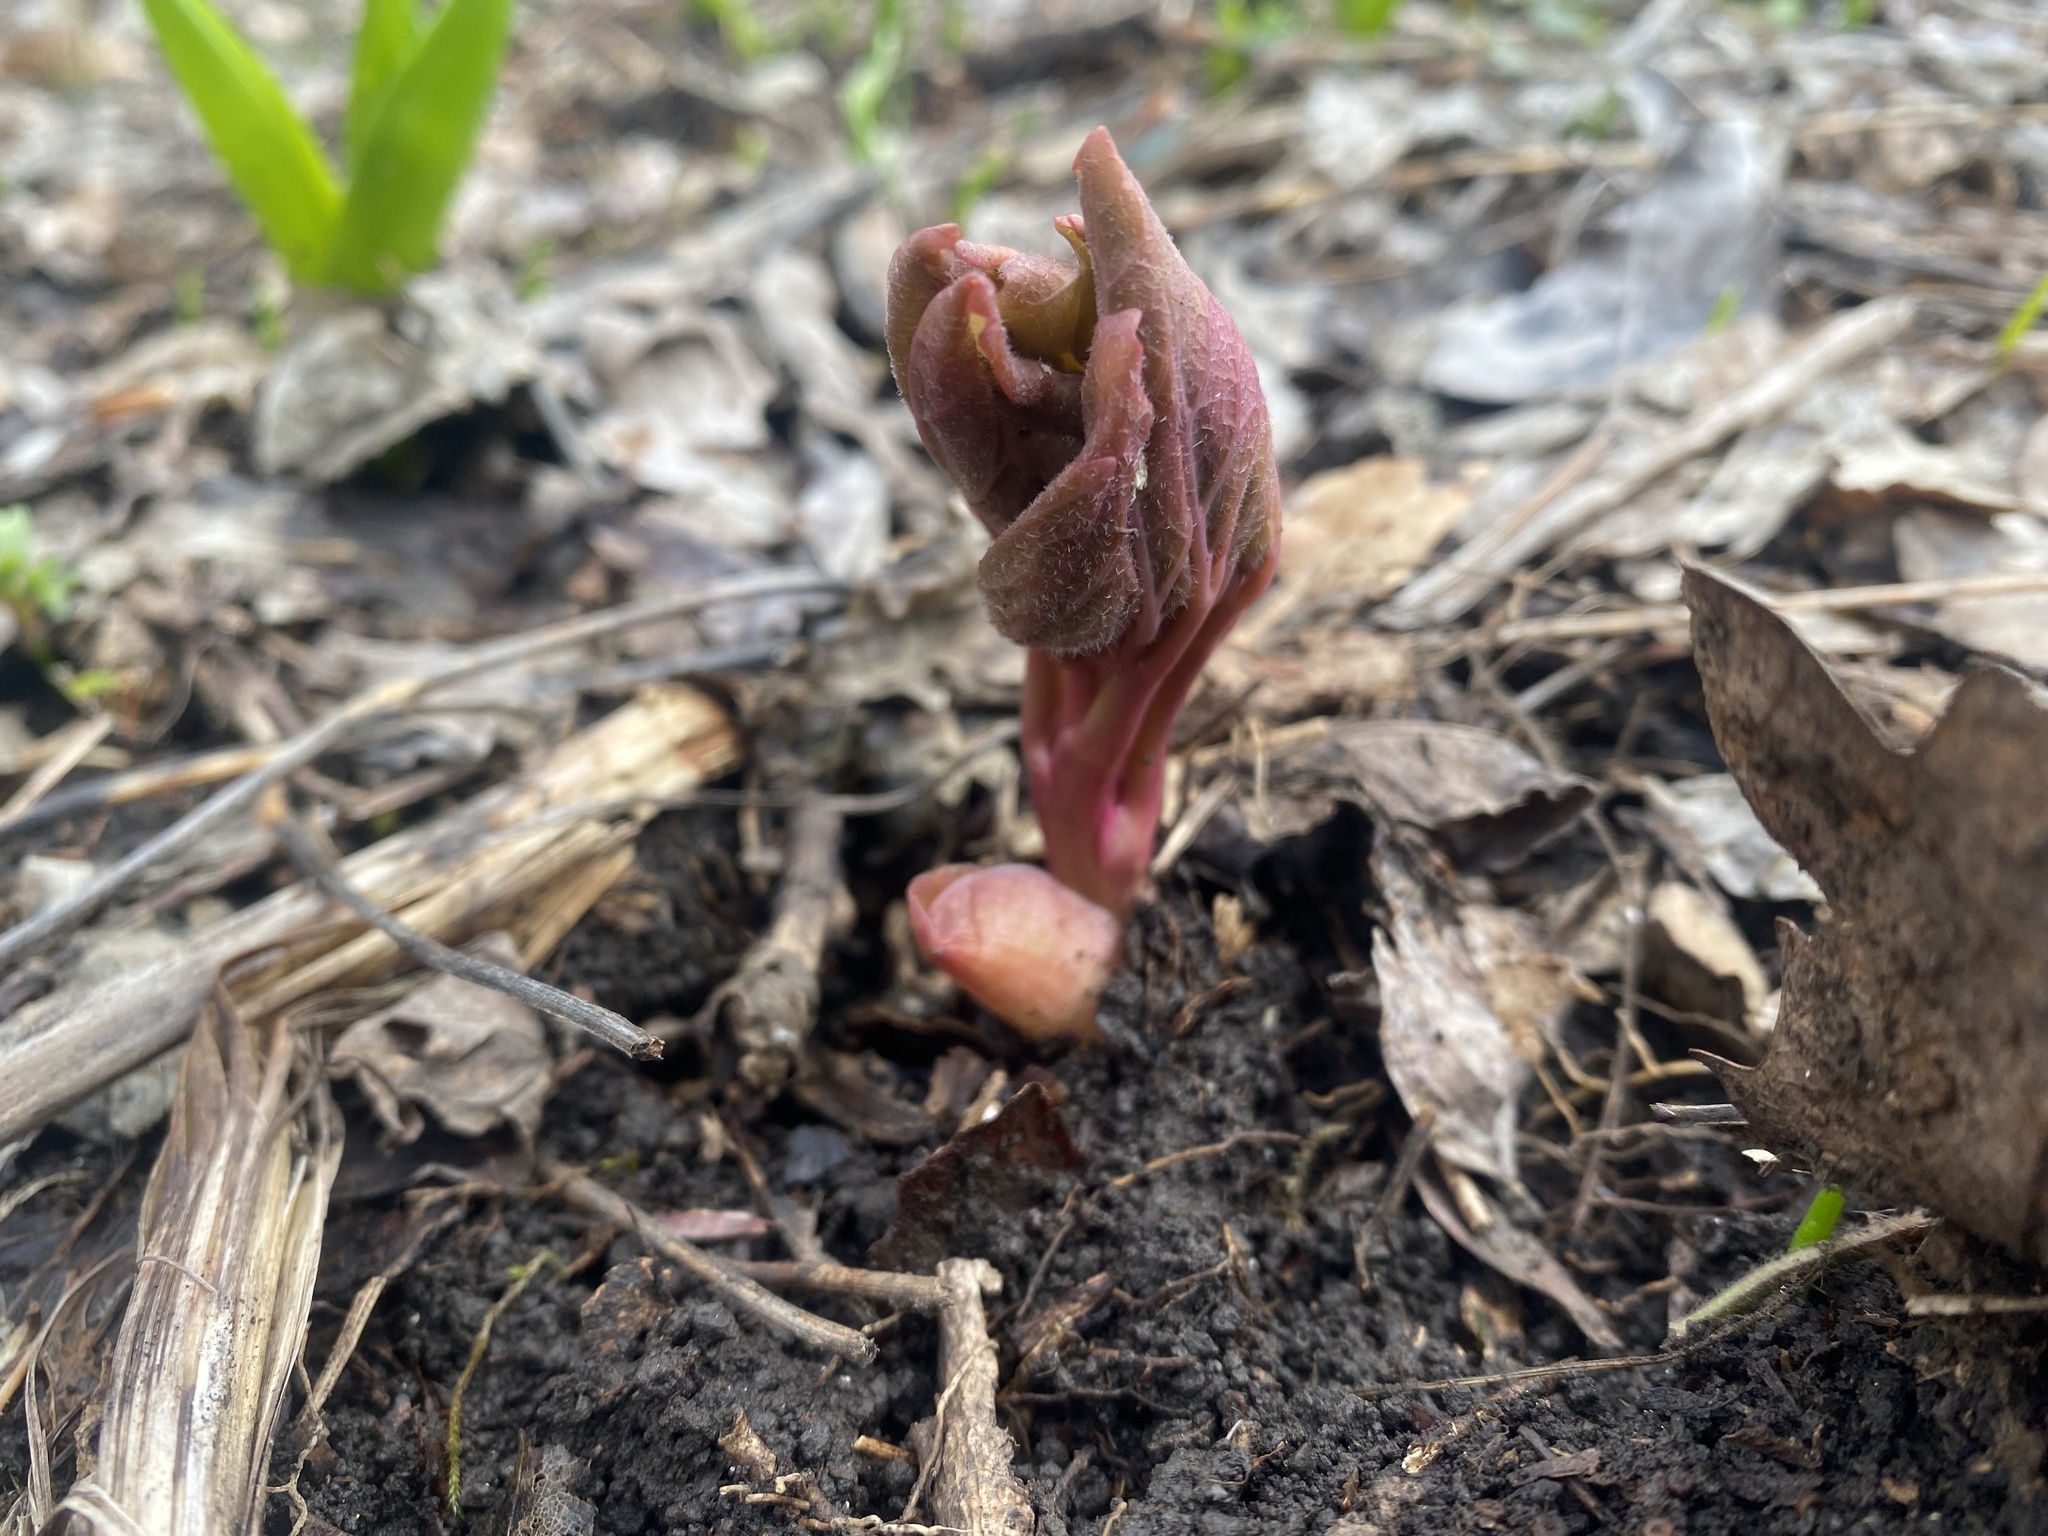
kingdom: Plantae
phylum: Tracheophyta
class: Magnoliopsida
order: Saxifragales
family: Paeoniaceae
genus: Paeonia
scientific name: Paeonia caucasica
